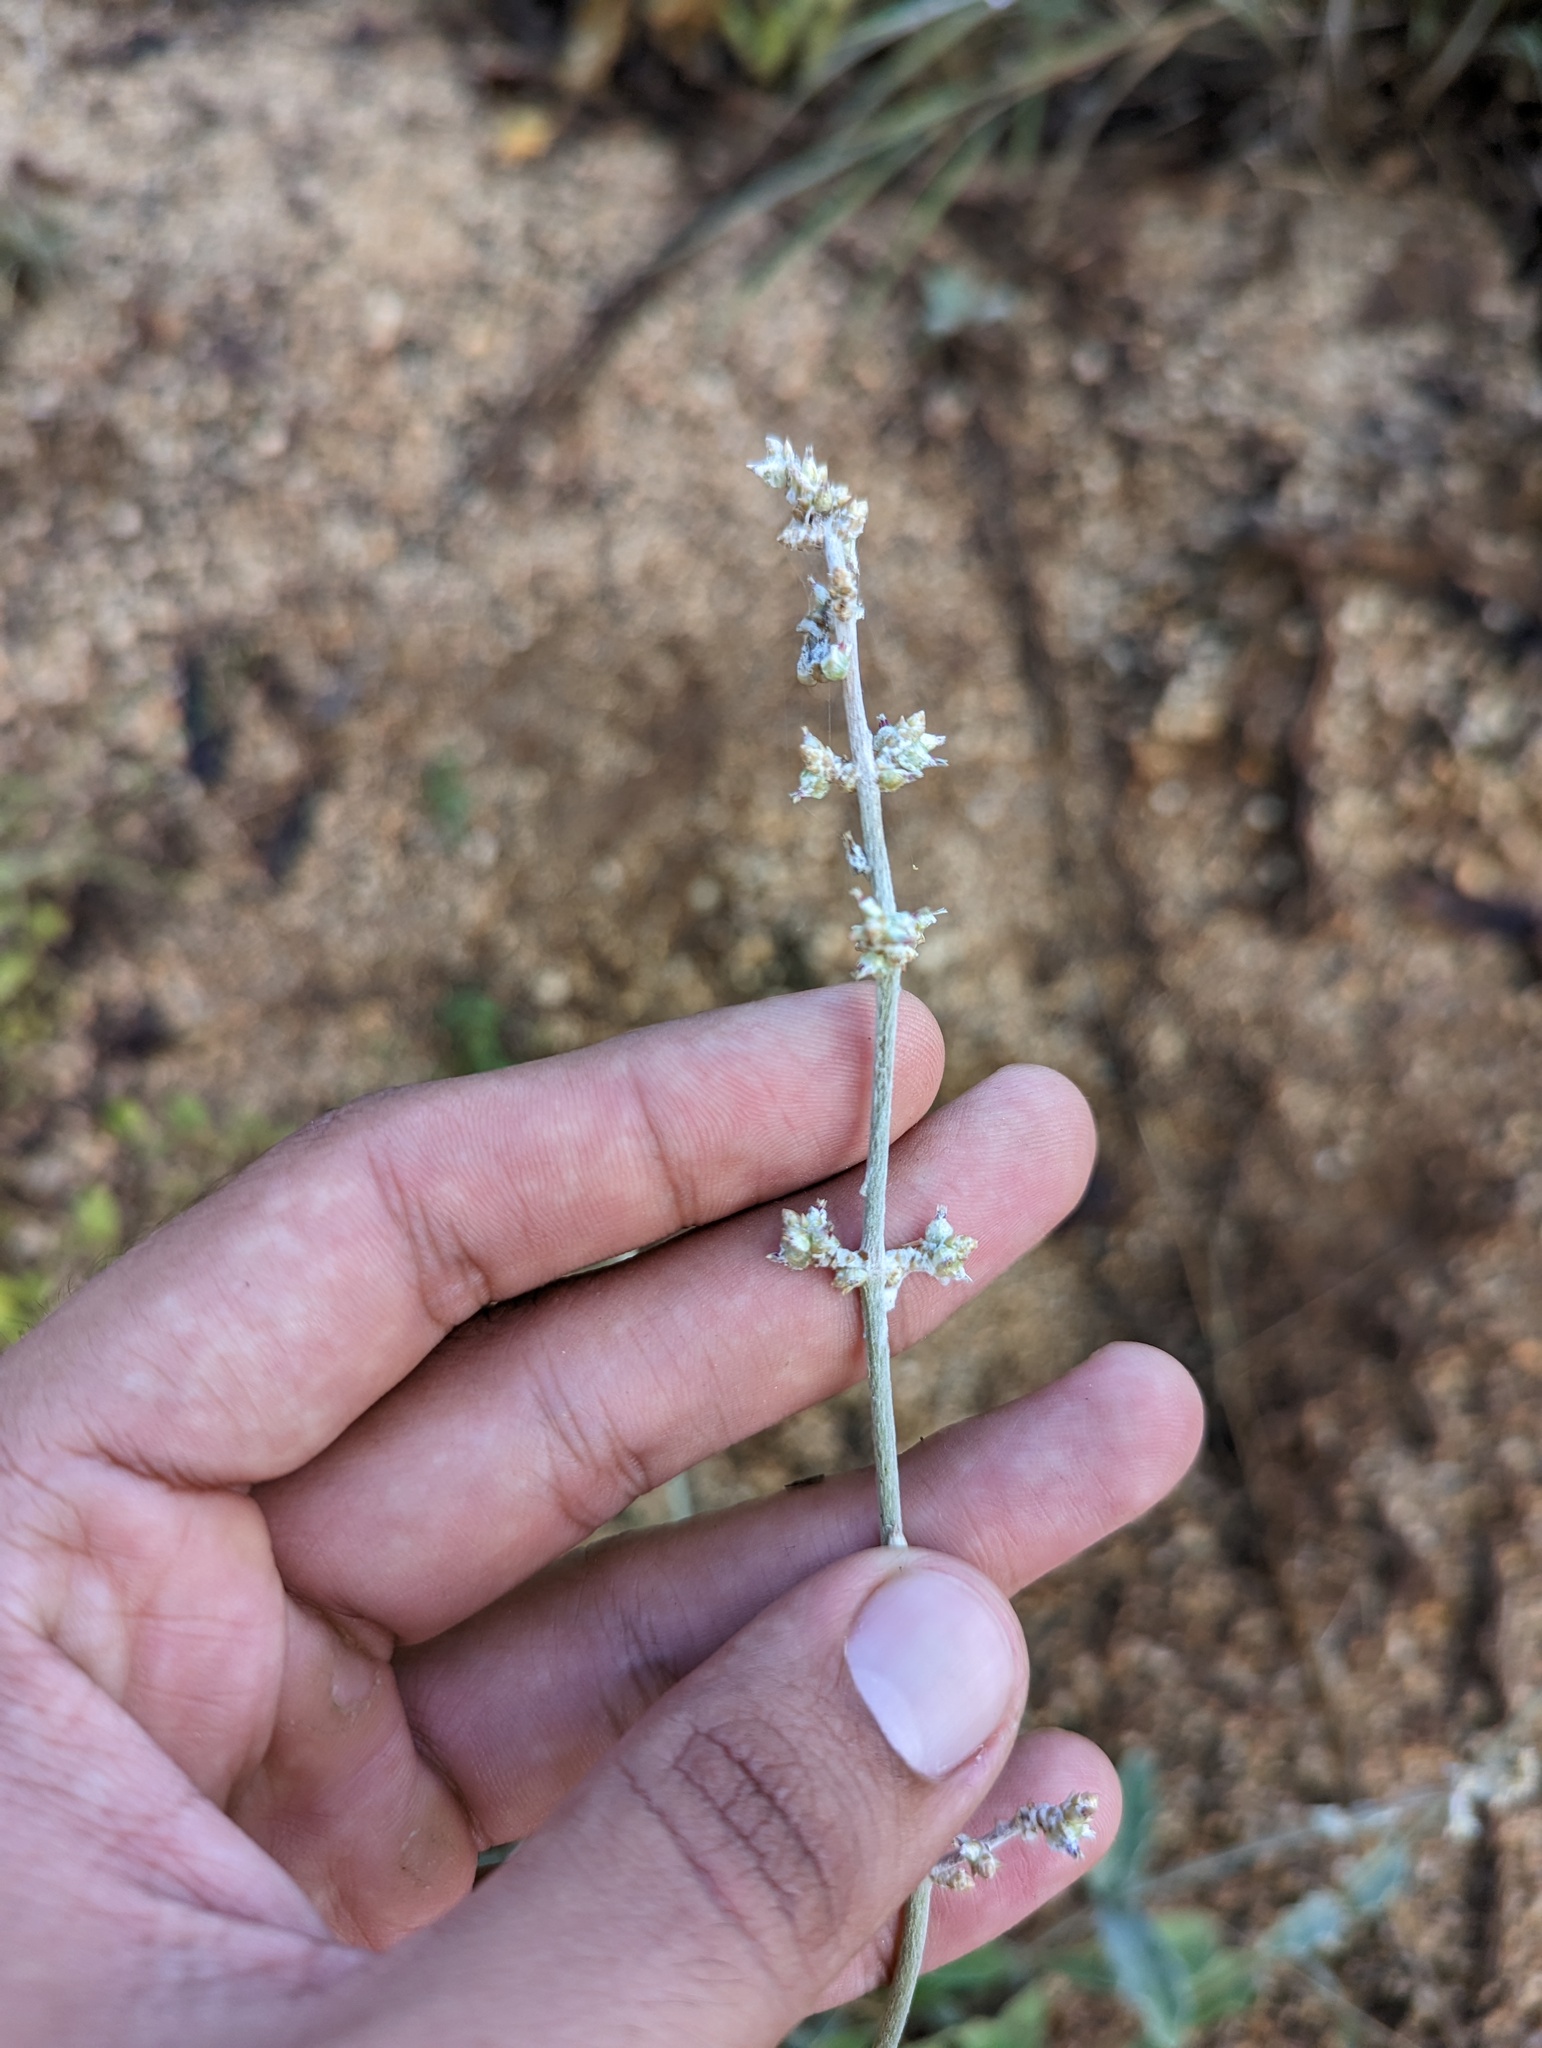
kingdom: Plantae
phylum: Tracheophyta
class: Magnoliopsida
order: Caryophyllales
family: Amaranthaceae
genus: Froelichia
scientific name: Froelichia xantusii
